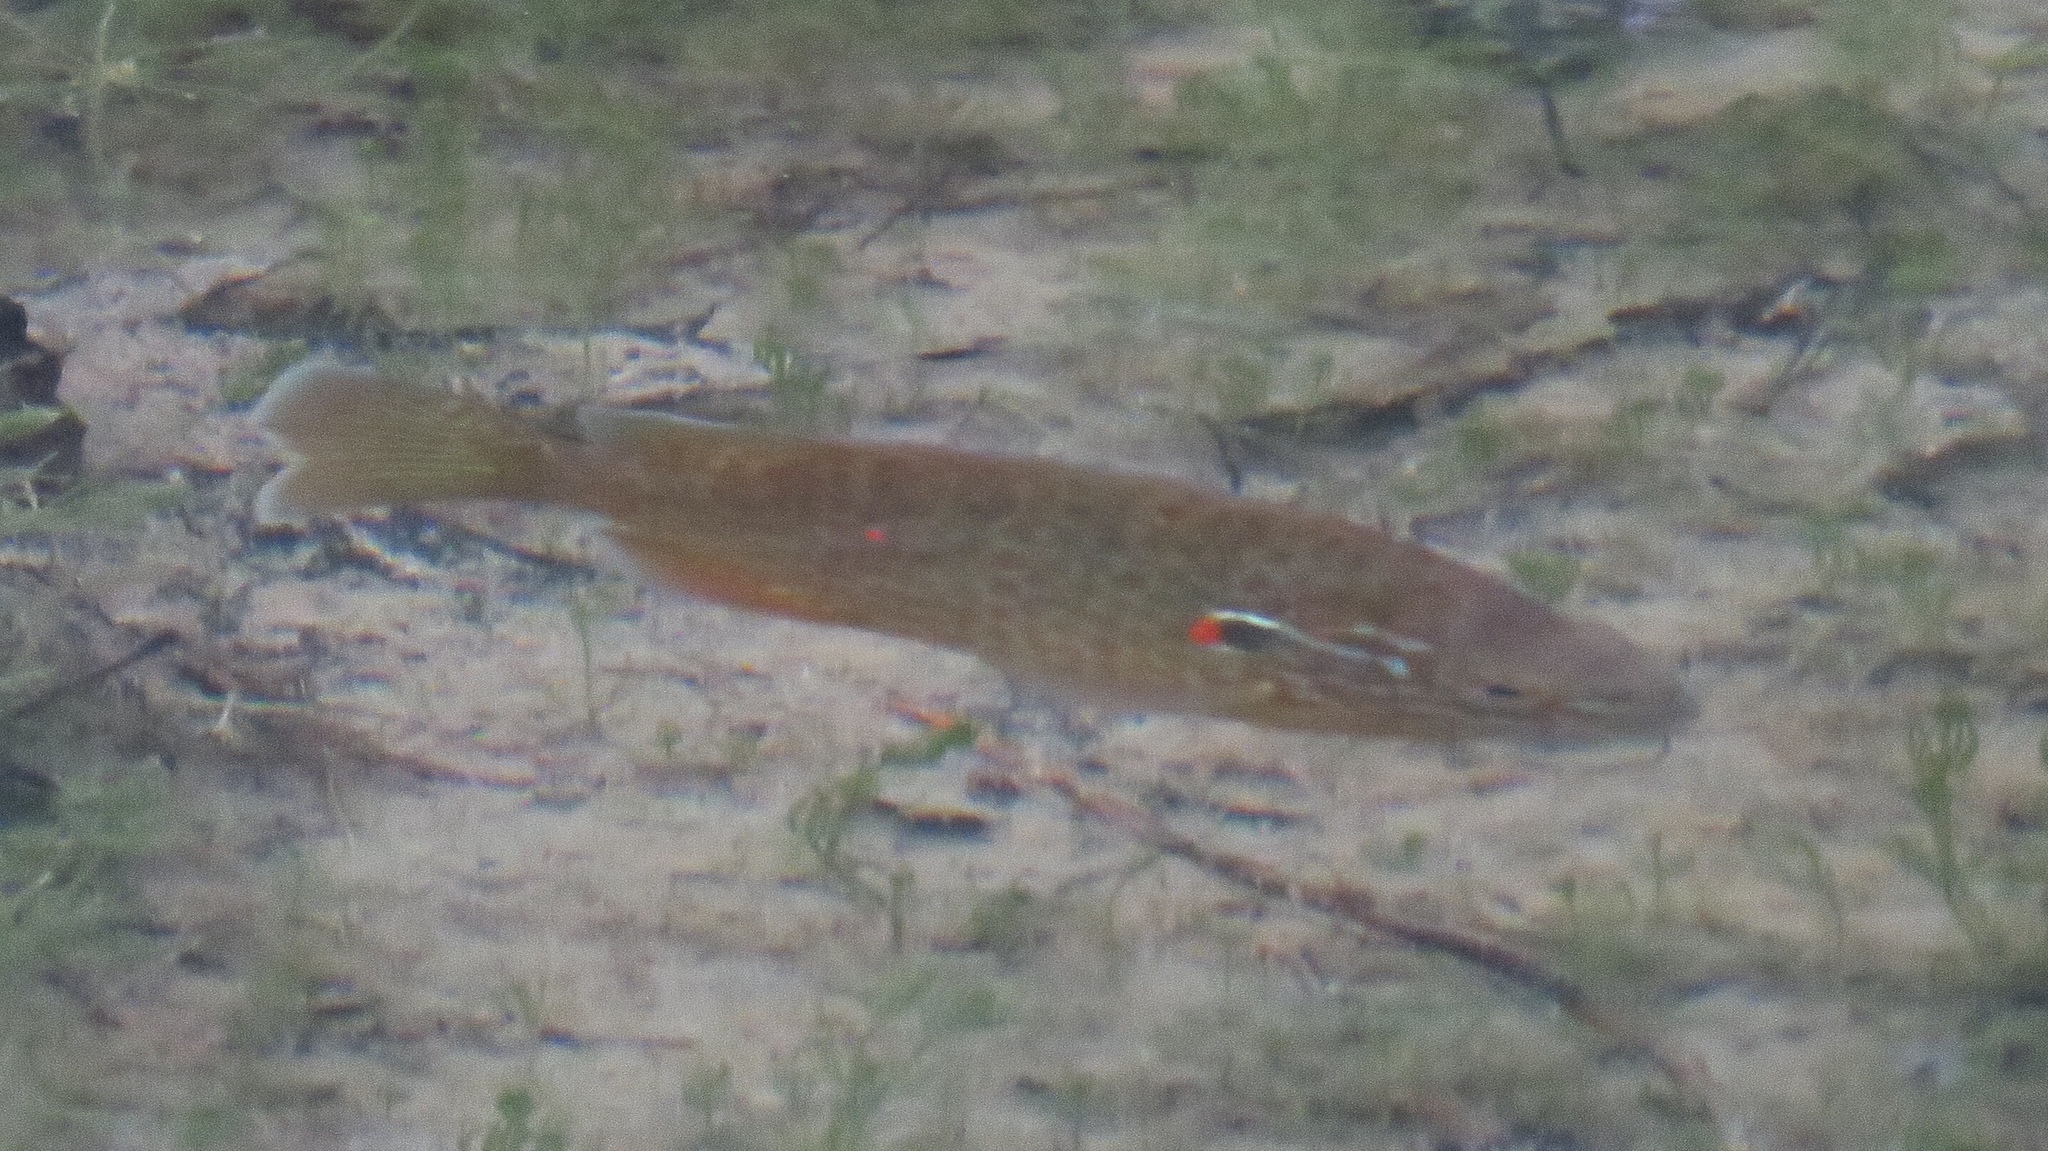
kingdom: Animalia
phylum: Chordata
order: Perciformes
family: Centrarchidae
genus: Lepomis
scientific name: Lepomis gibbosus
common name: Pumpkinseed
